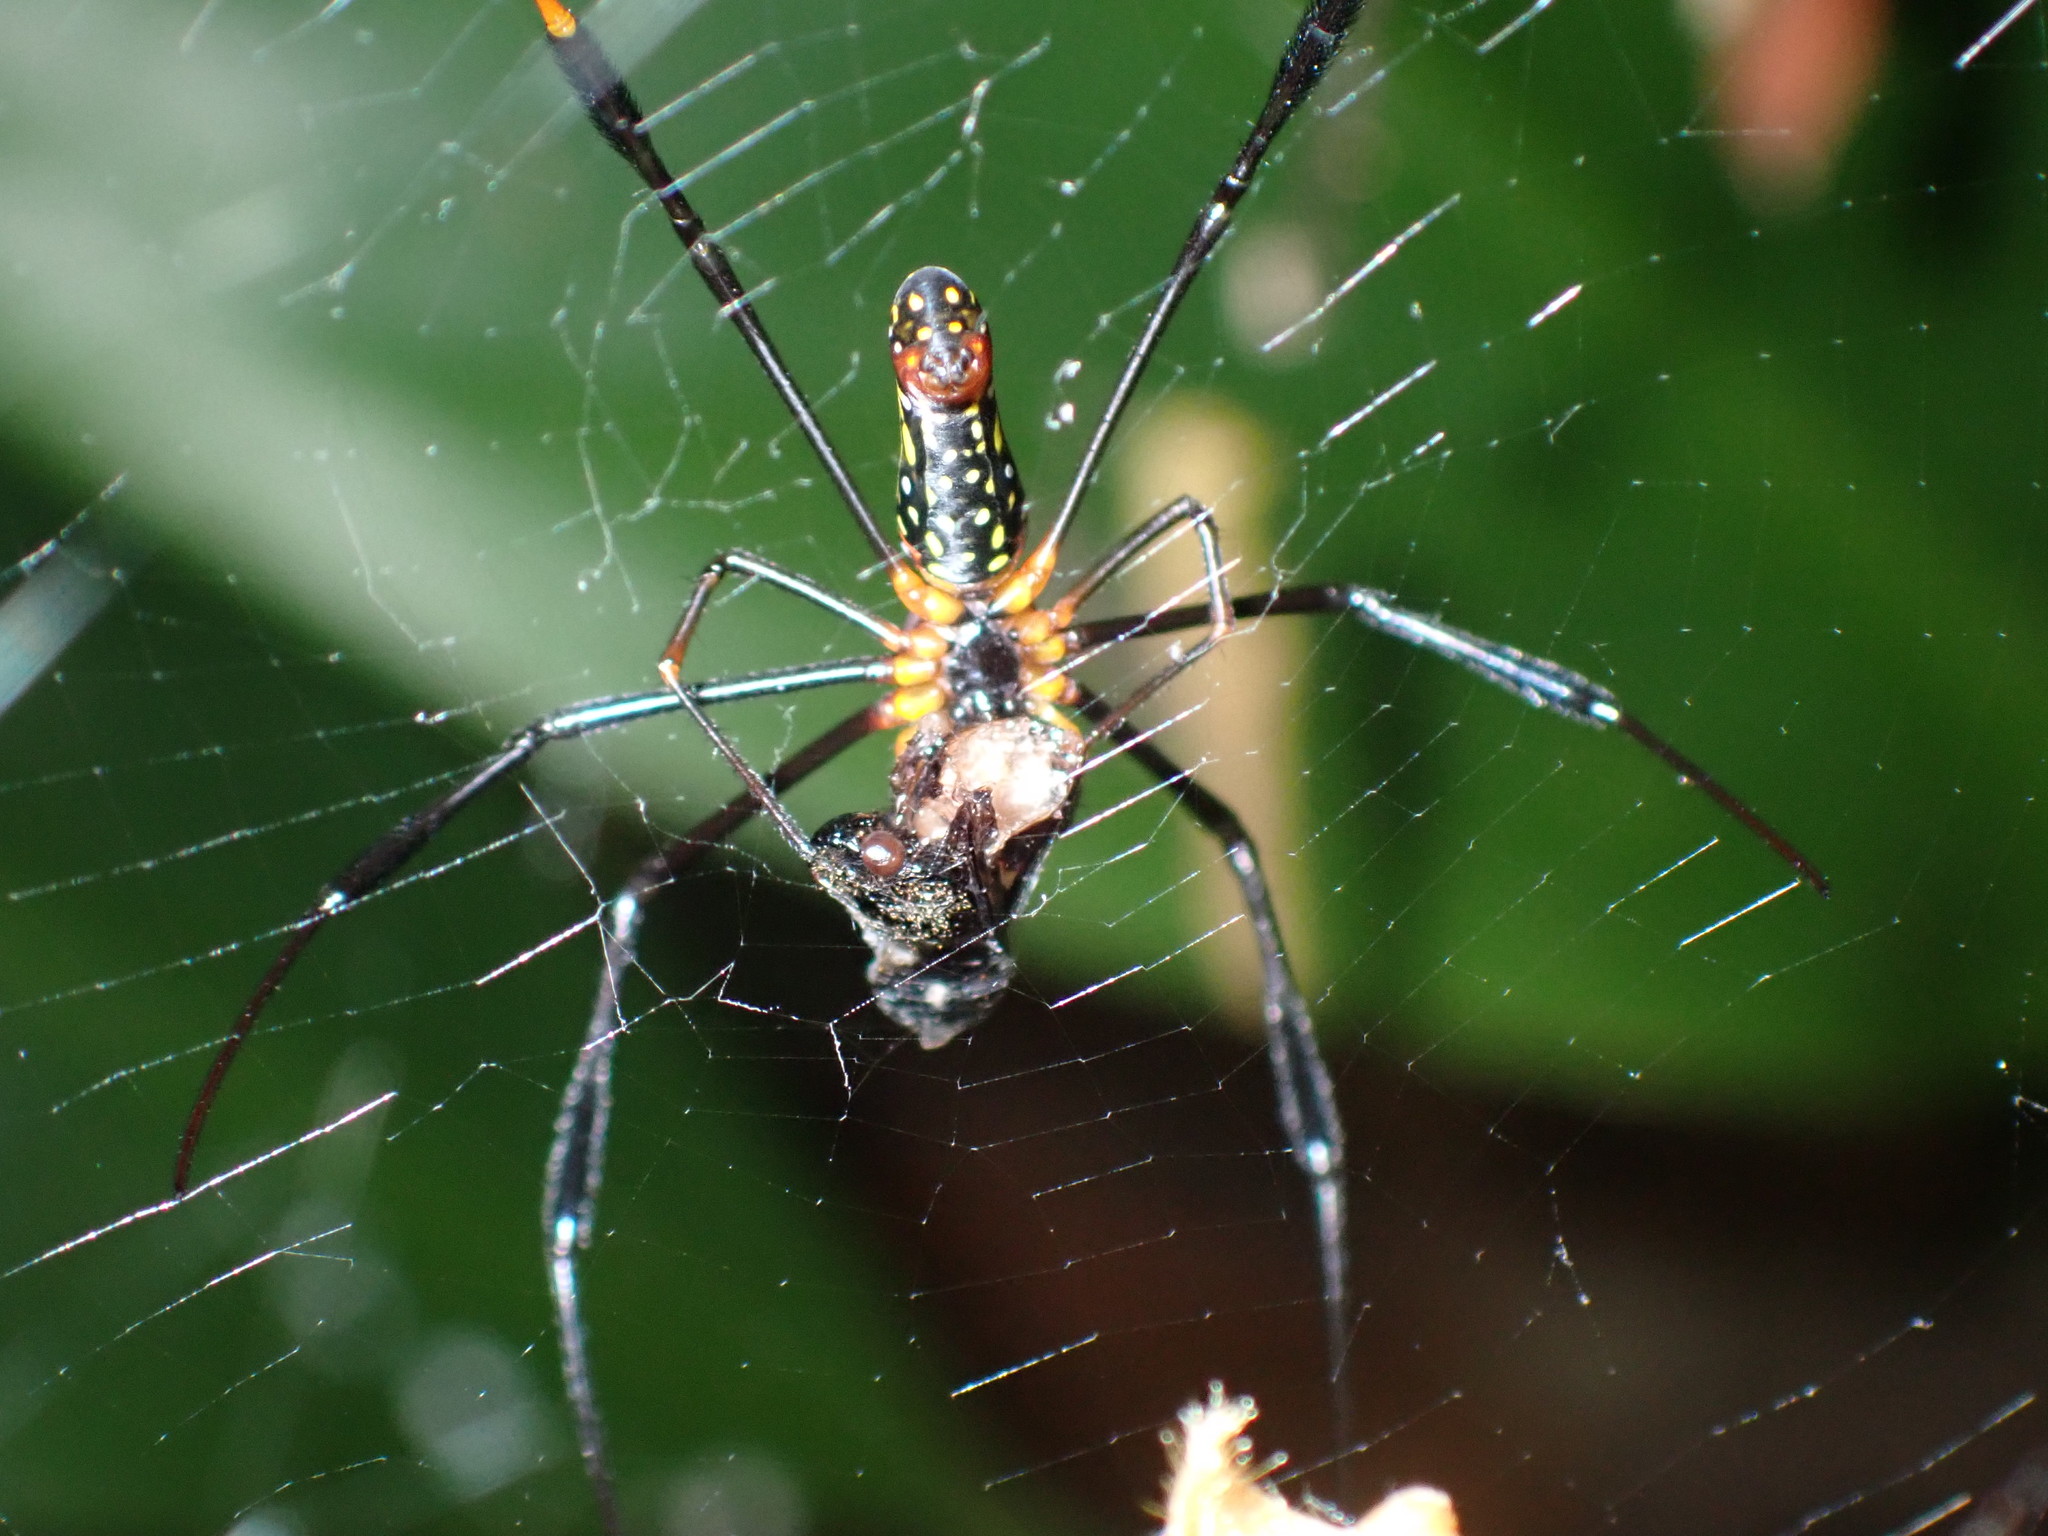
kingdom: Animalia
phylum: Arthropoda
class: Arachnida
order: Araneae
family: Araneidae
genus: Nephila
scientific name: Nephila pilipes
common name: Giant golden orb weaver
